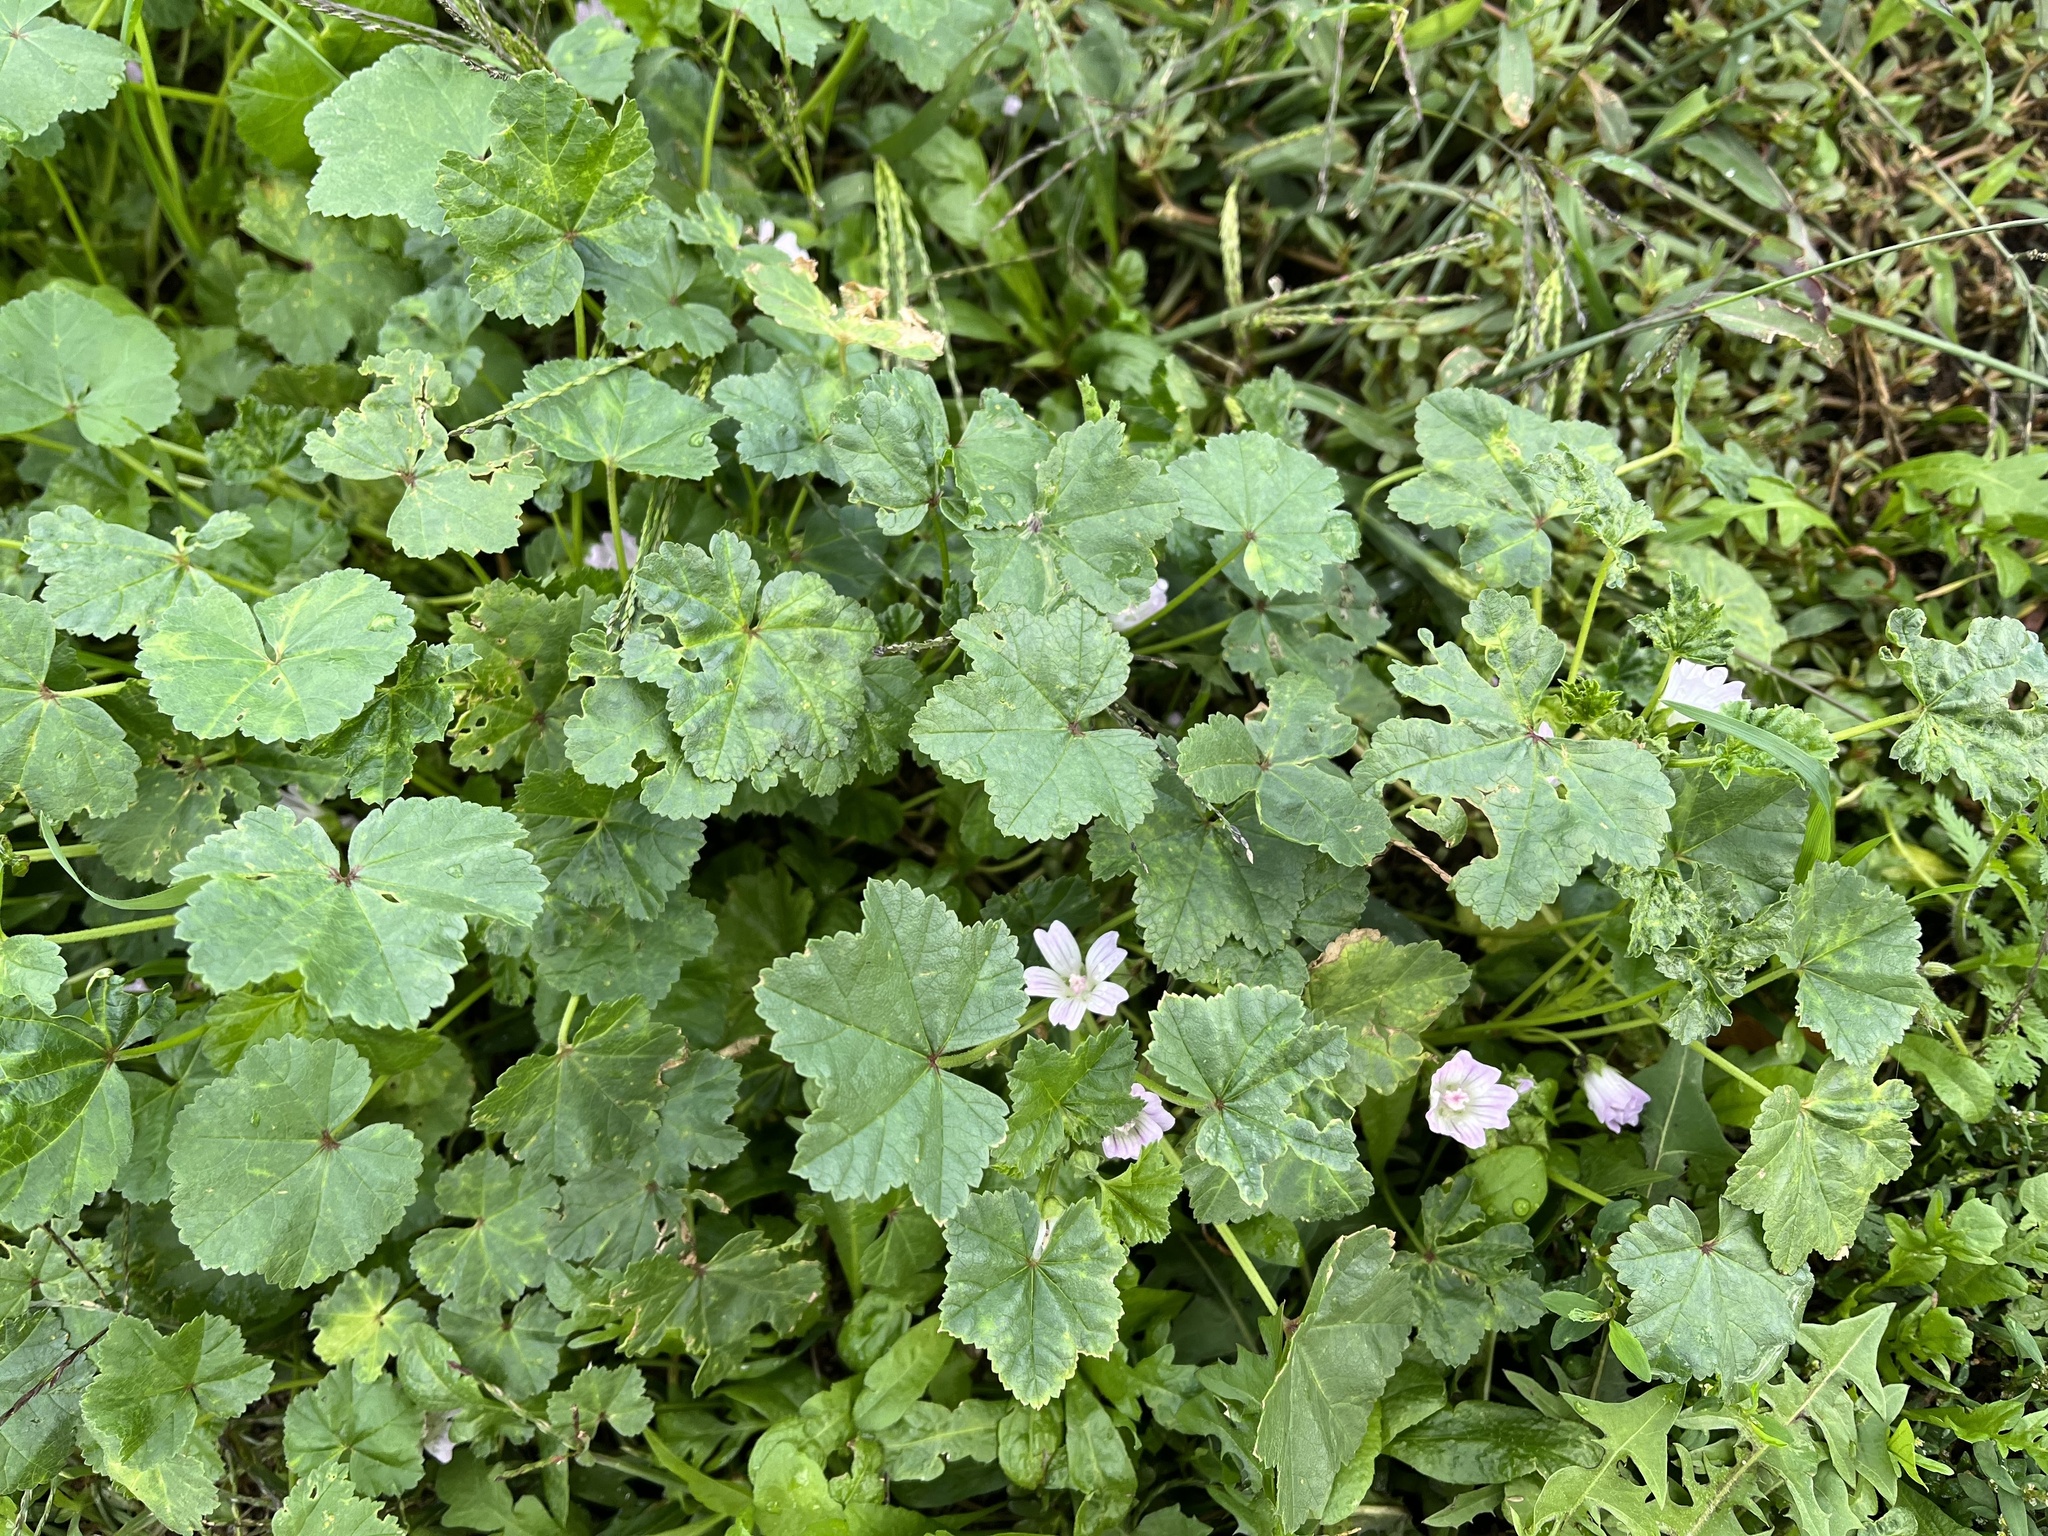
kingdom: Plantae
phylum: Tracheophyta
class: Magnoliopsida
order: Malvales
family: Malvaceae
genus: Malva
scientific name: Malva neglecta
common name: Common mallow
